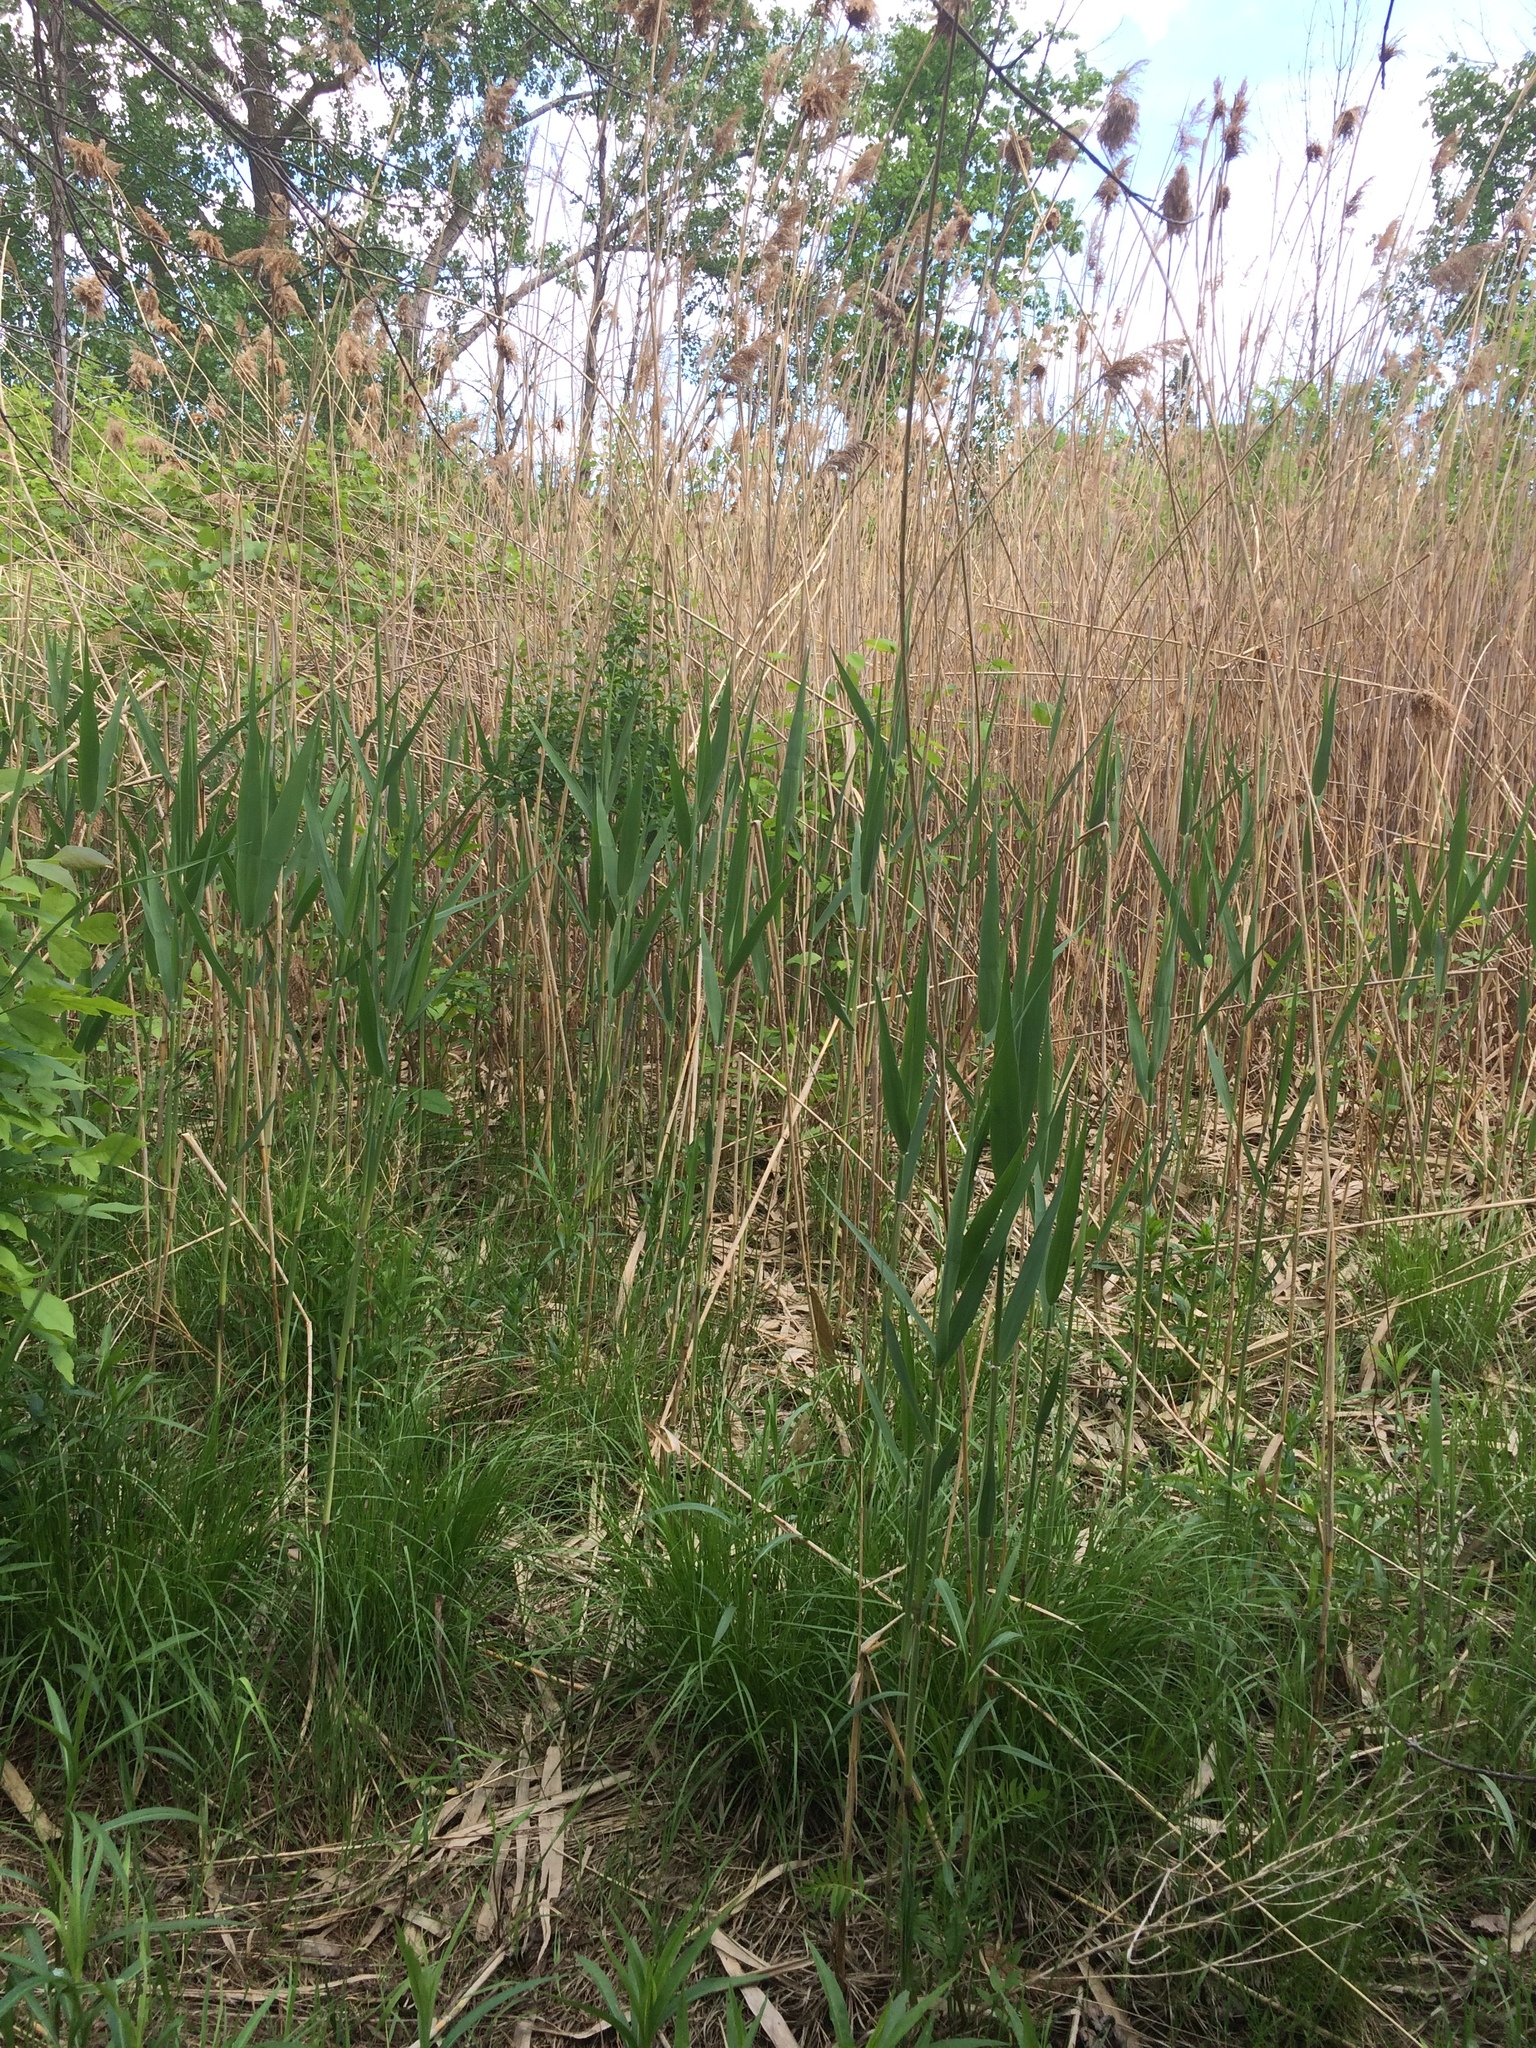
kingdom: Plantae
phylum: Tracheophyta
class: Liliopsida
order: Poales
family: Poaceae
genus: Phragmites
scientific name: Phragmites australis
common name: Common reed
